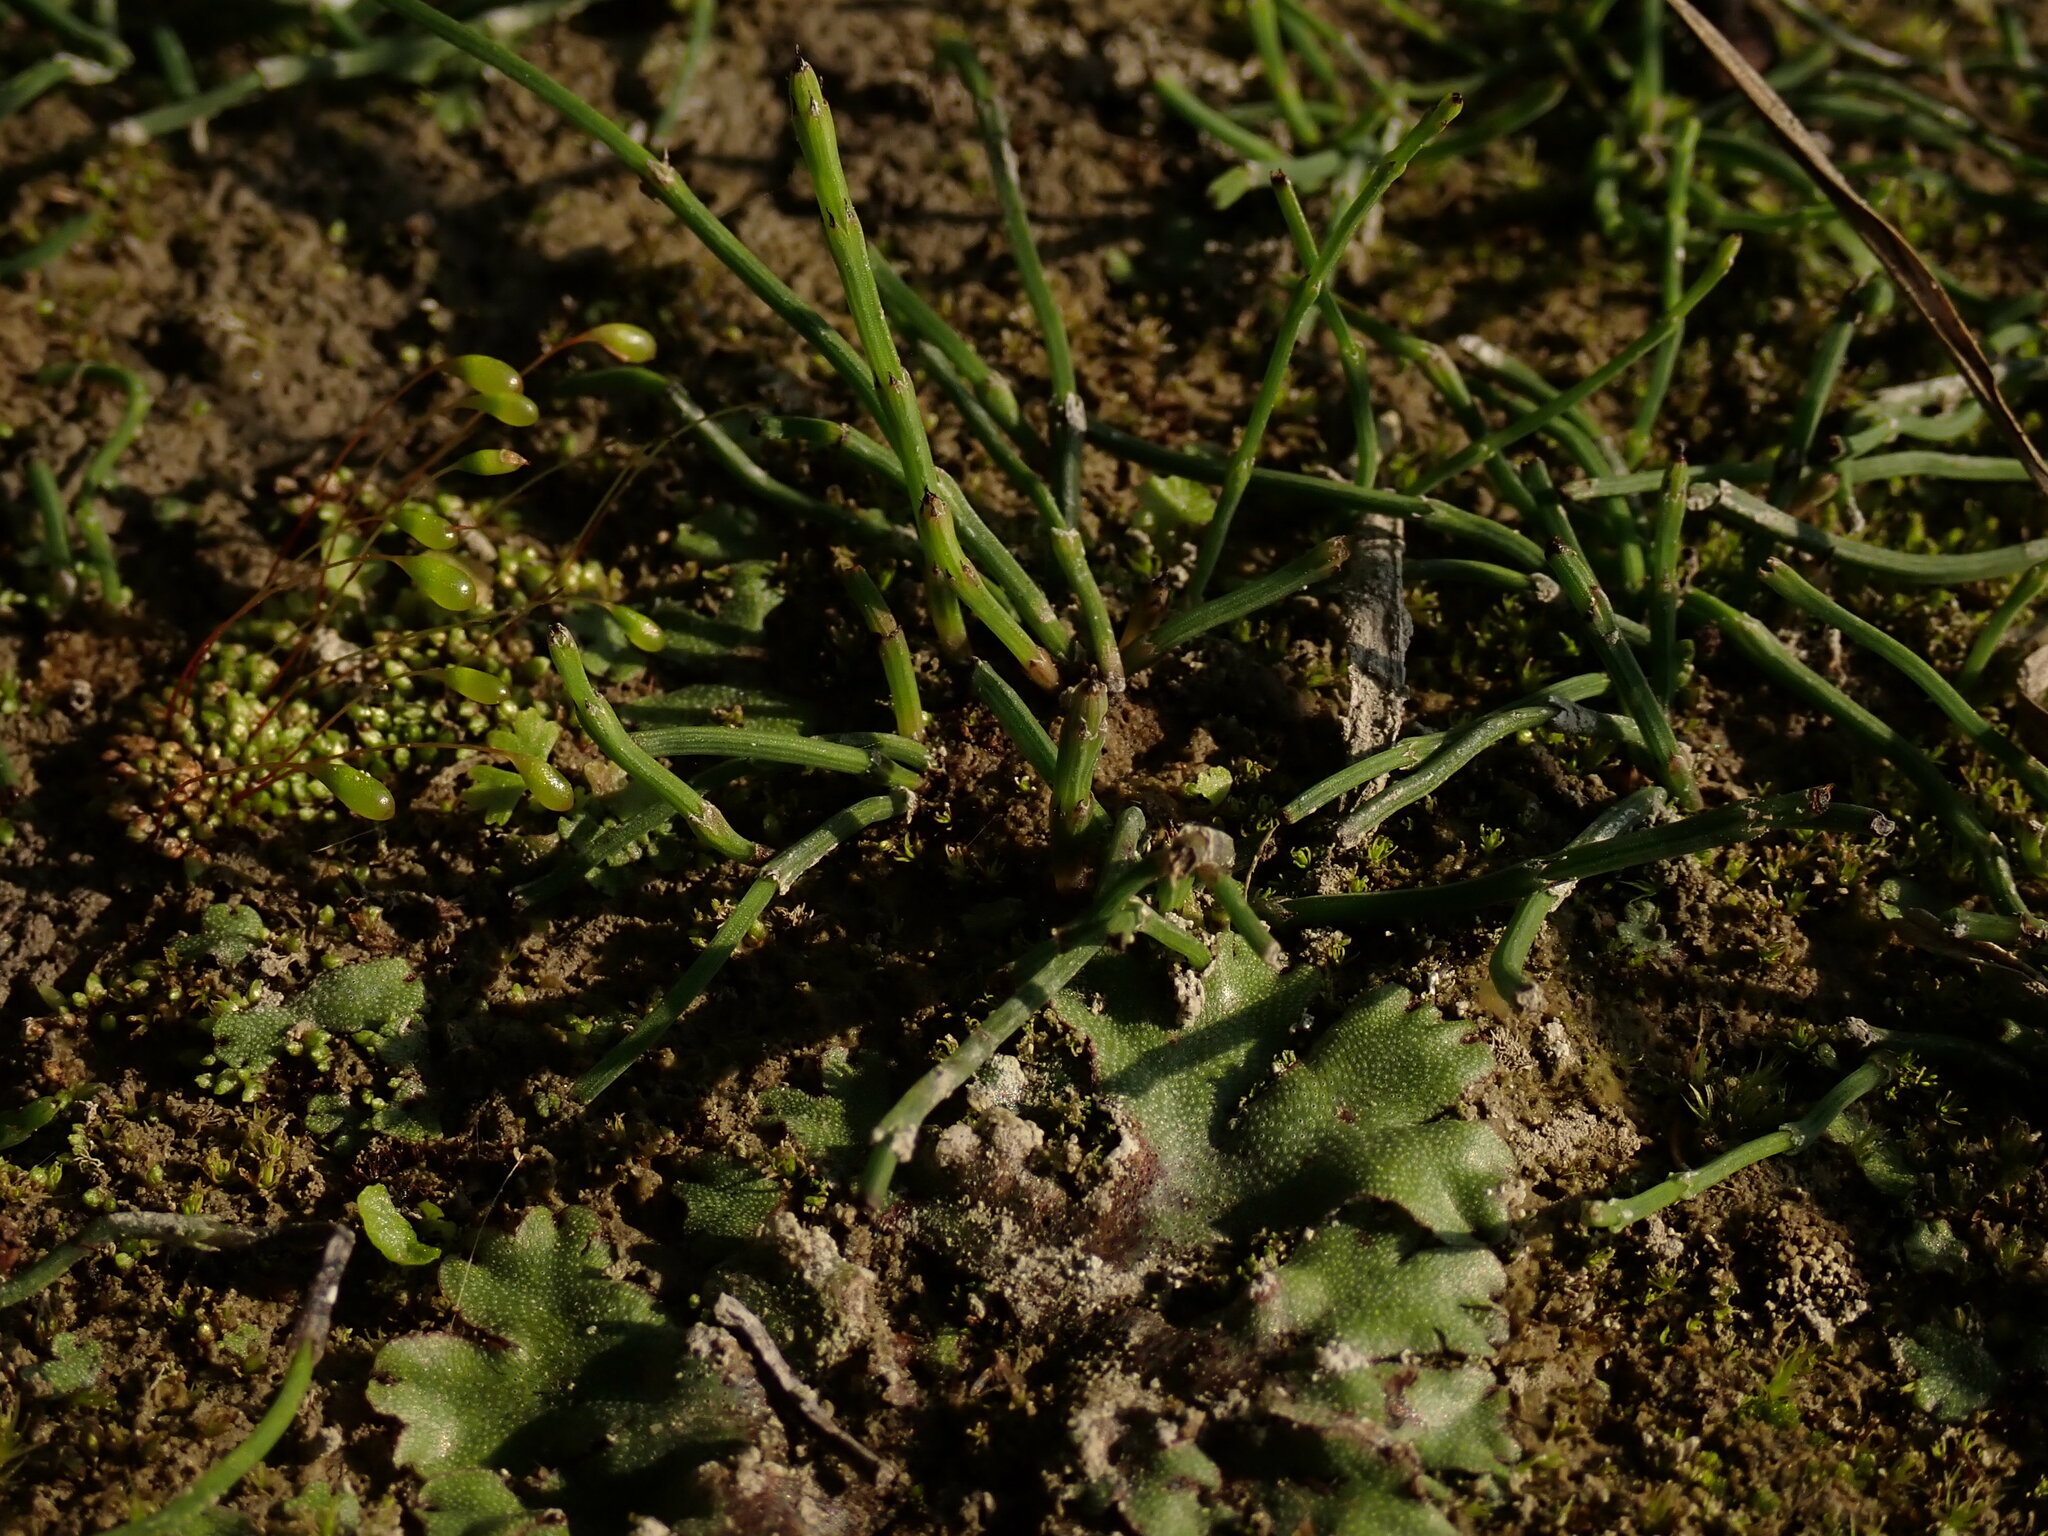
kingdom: Plantae
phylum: Tracheophyta
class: Polypodiopsida
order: Equisetales
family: Equisetaceae
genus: Equisetum
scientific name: Equisetum ramosissimum
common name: Branched horsetail
